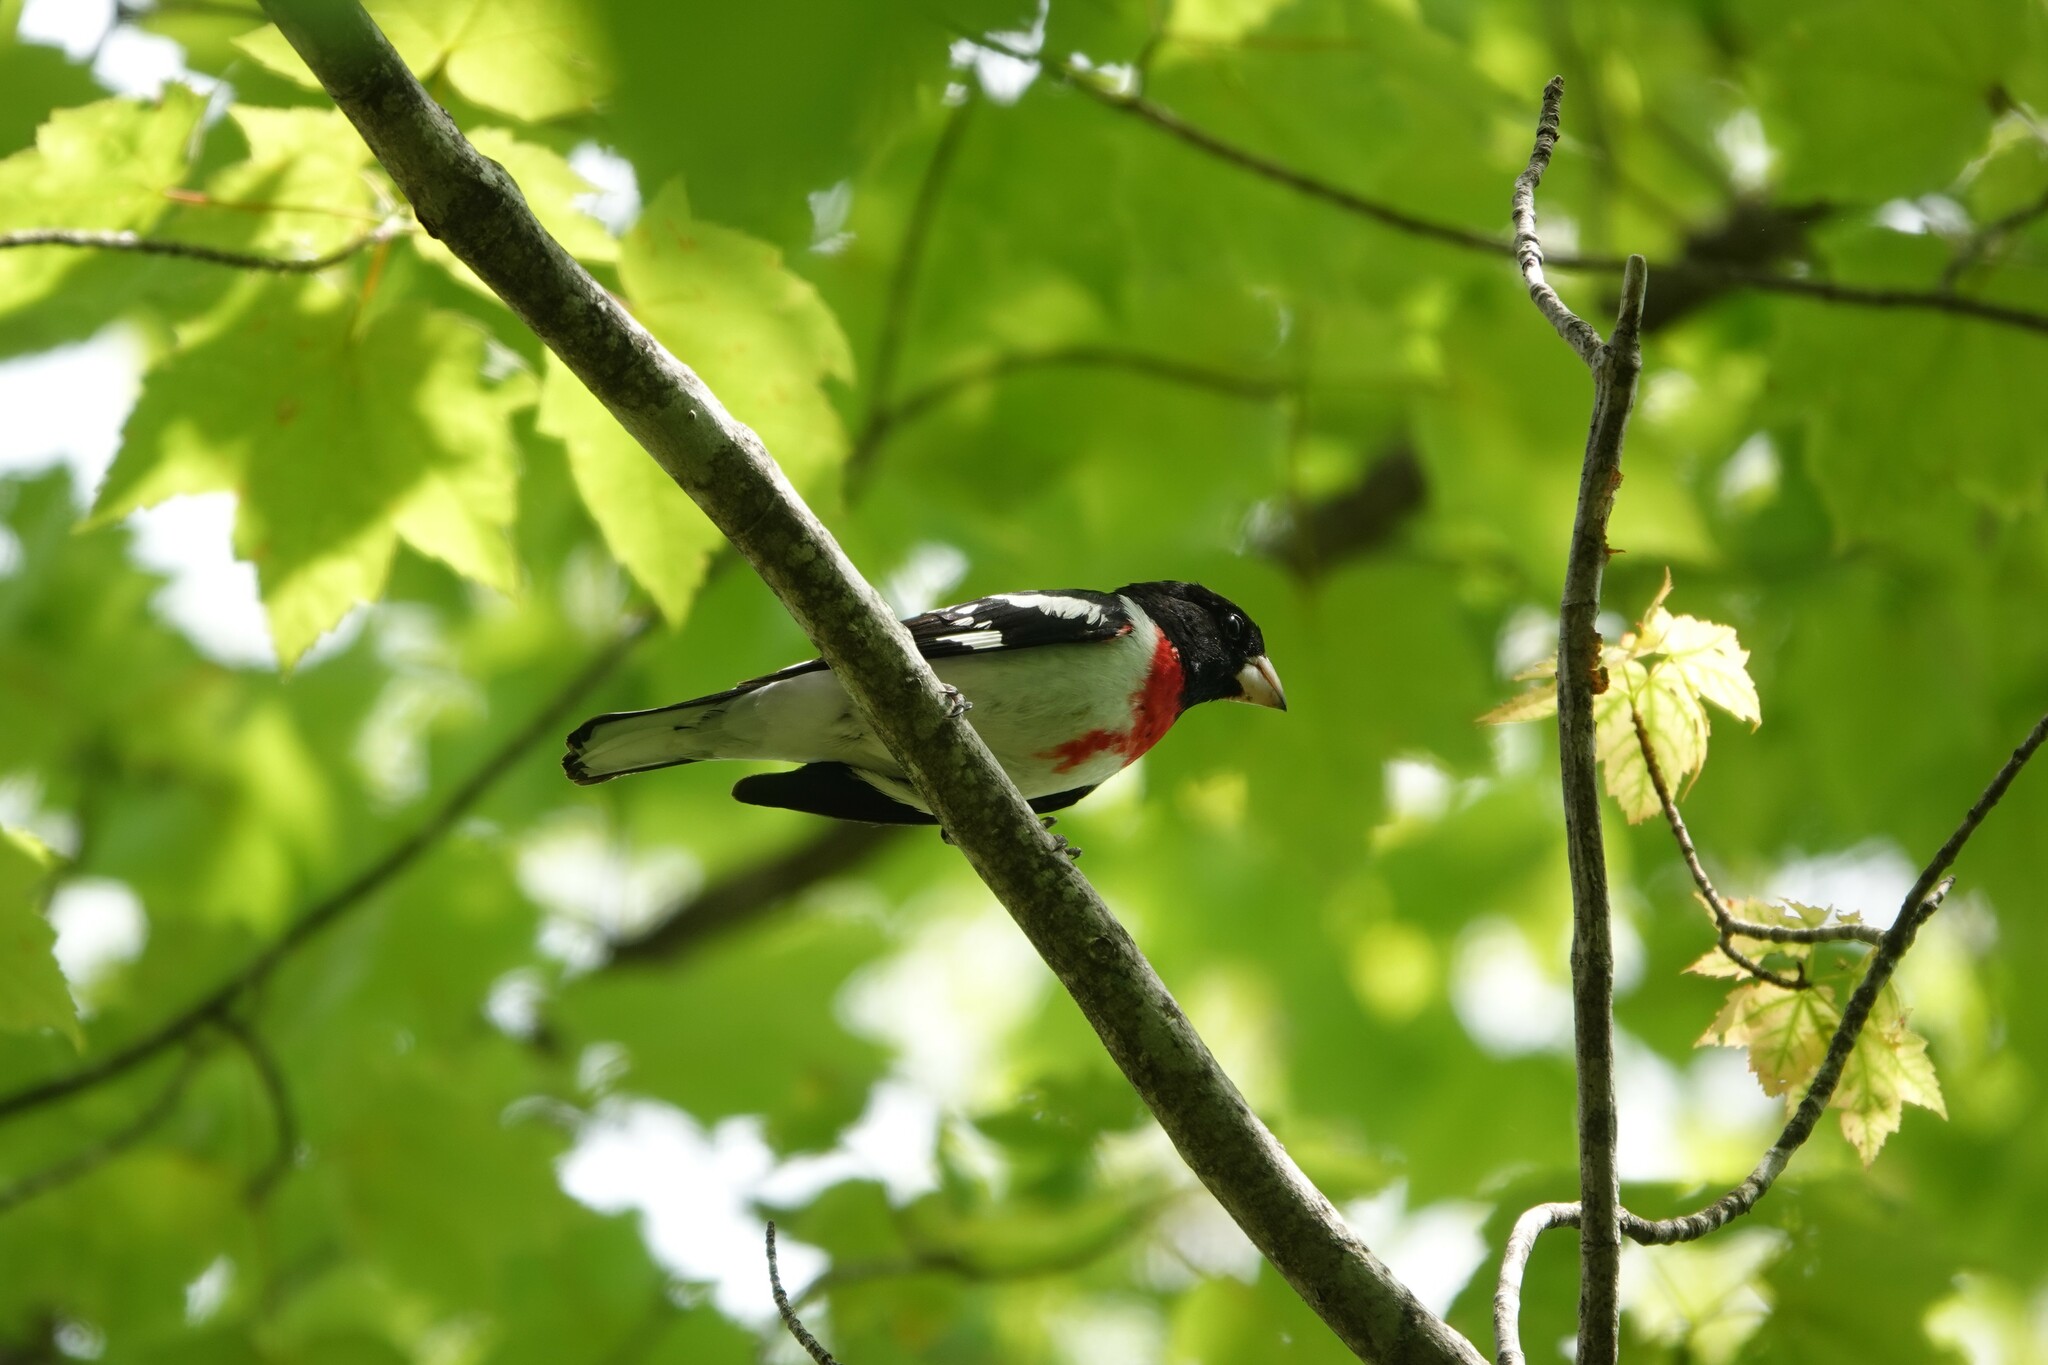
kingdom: Animalia
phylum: Chordata
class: Aves
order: Passeriformes
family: Cardinalidae
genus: Pheucticus
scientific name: Pheucticus ludovicianus
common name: Rose-breasted grosbeak
